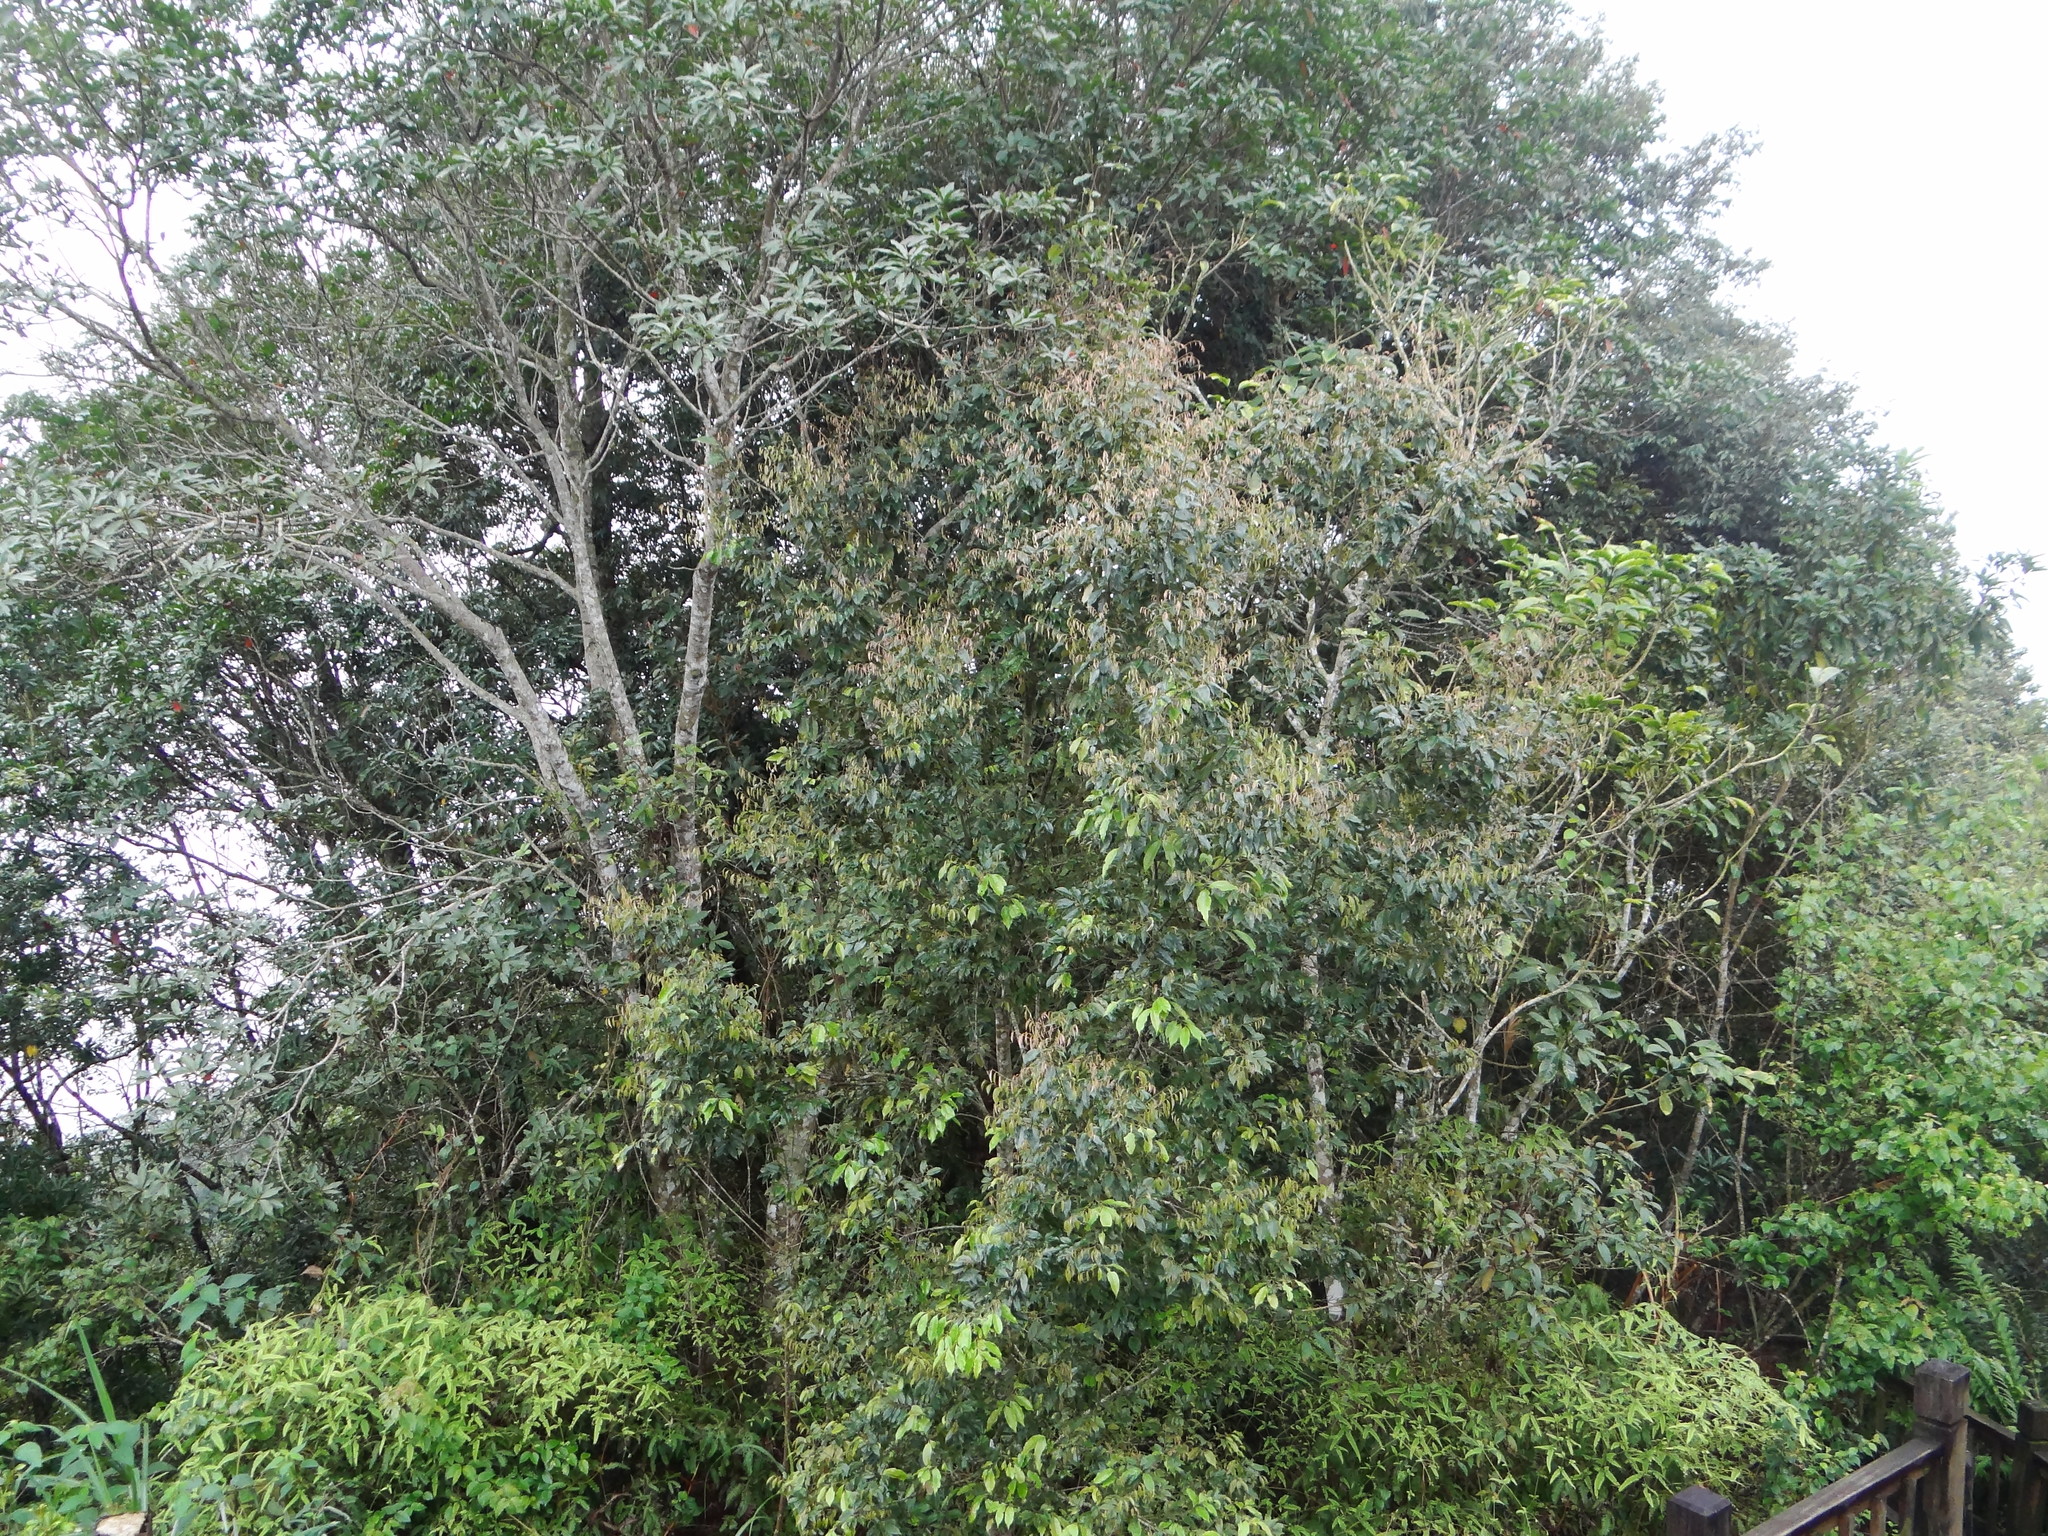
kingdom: Plantae
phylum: Tracheophyta
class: Magnoliopsida
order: Fagales
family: Fagaceae
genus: Castanopsis
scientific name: Castanopsis carlesii
